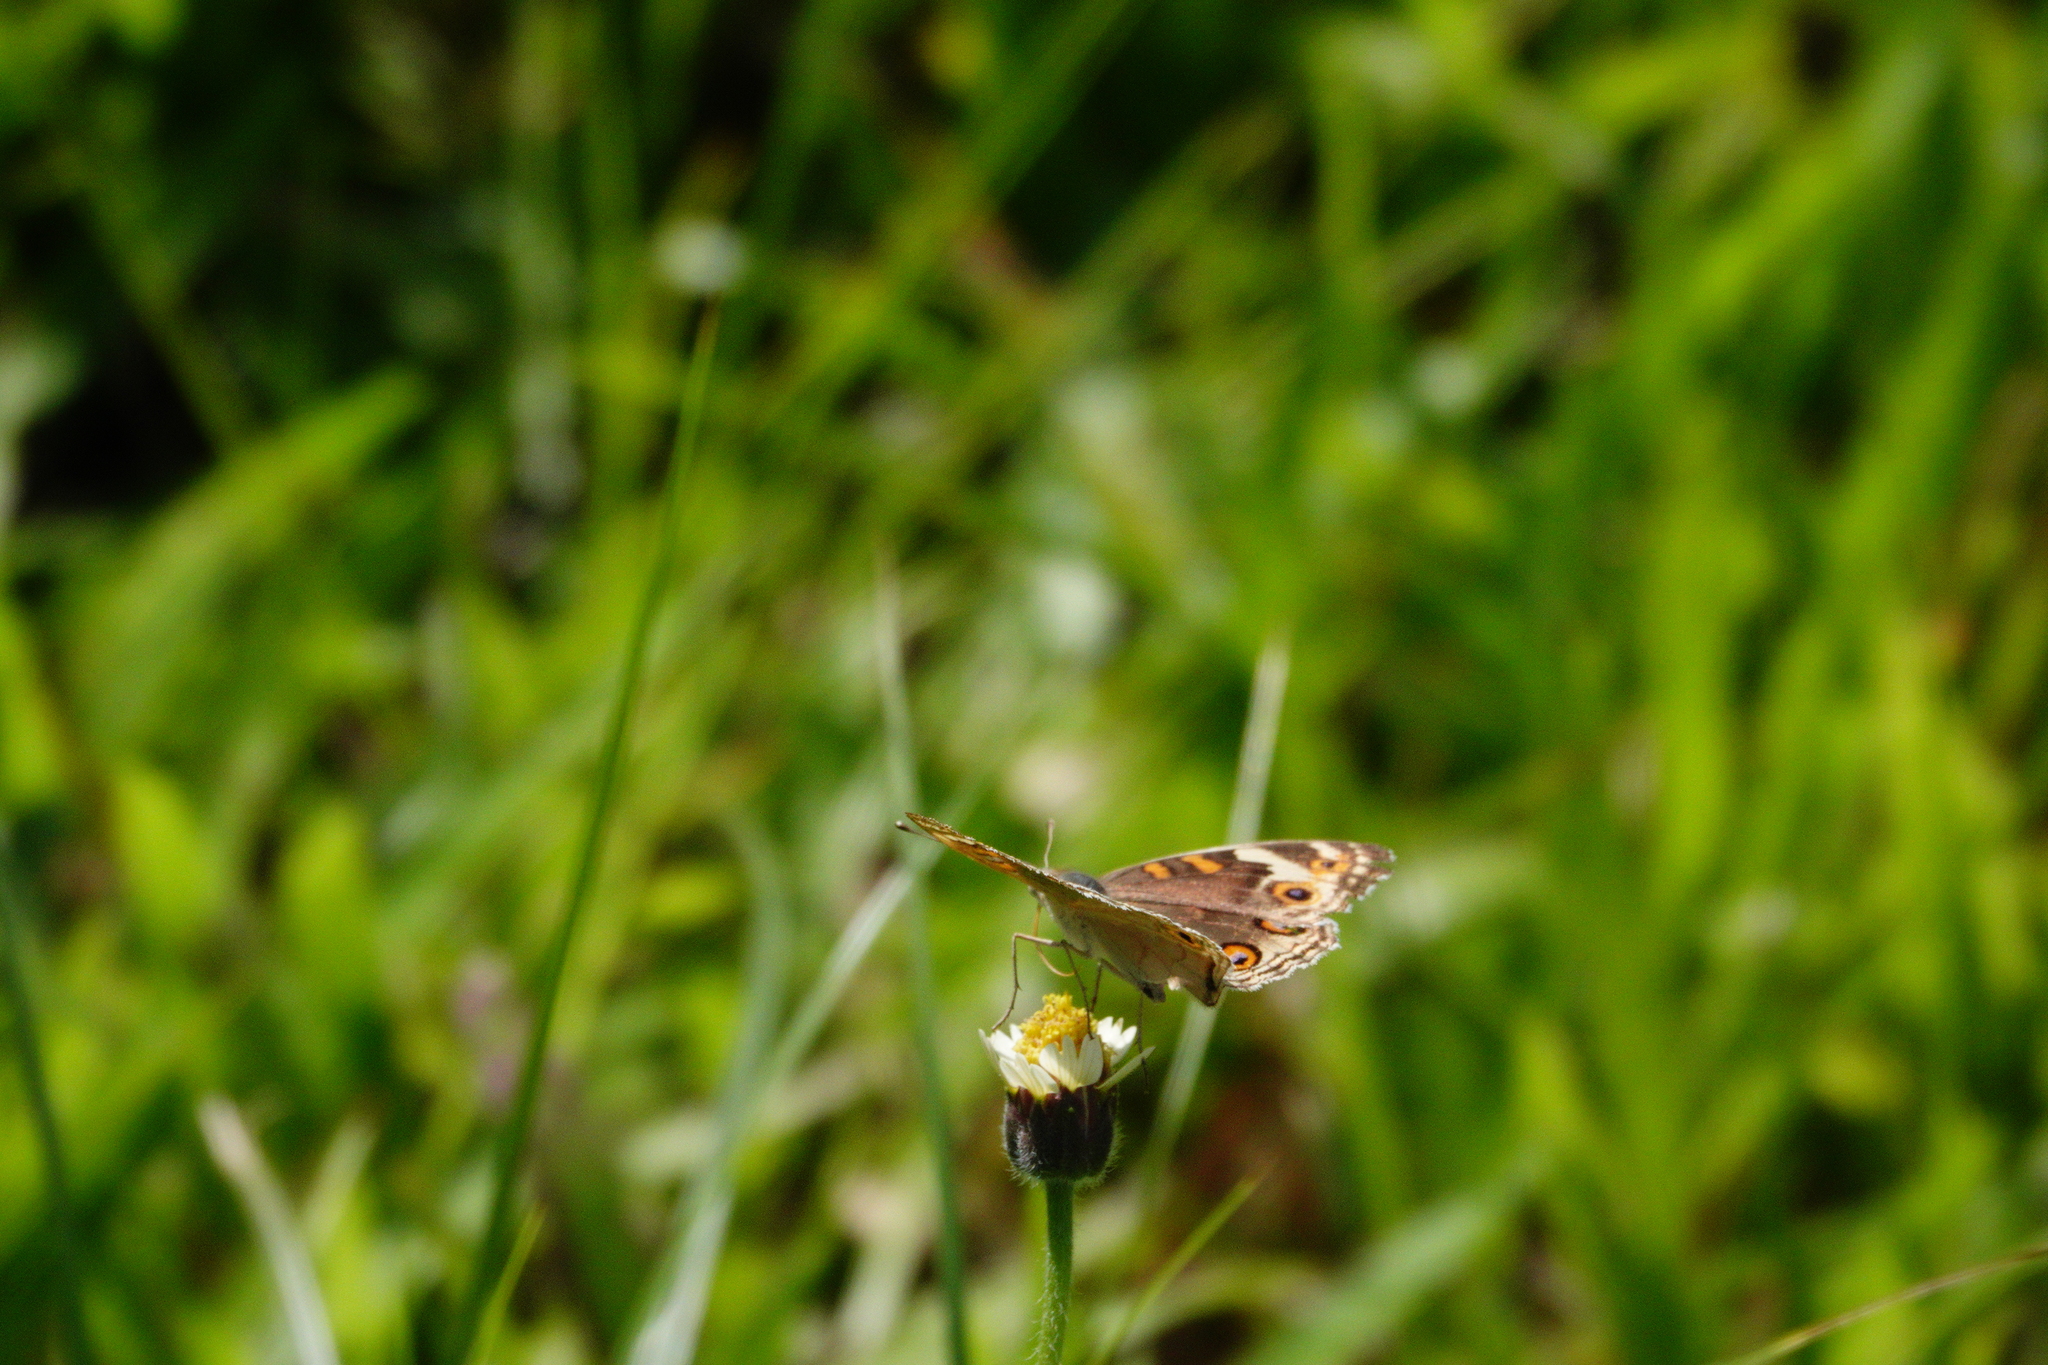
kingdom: Animalia
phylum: Arthropoda
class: Insecta
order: Lepidoptera
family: Nymphalidae
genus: Junonia
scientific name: Junonia orithya
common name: Blue pansy
